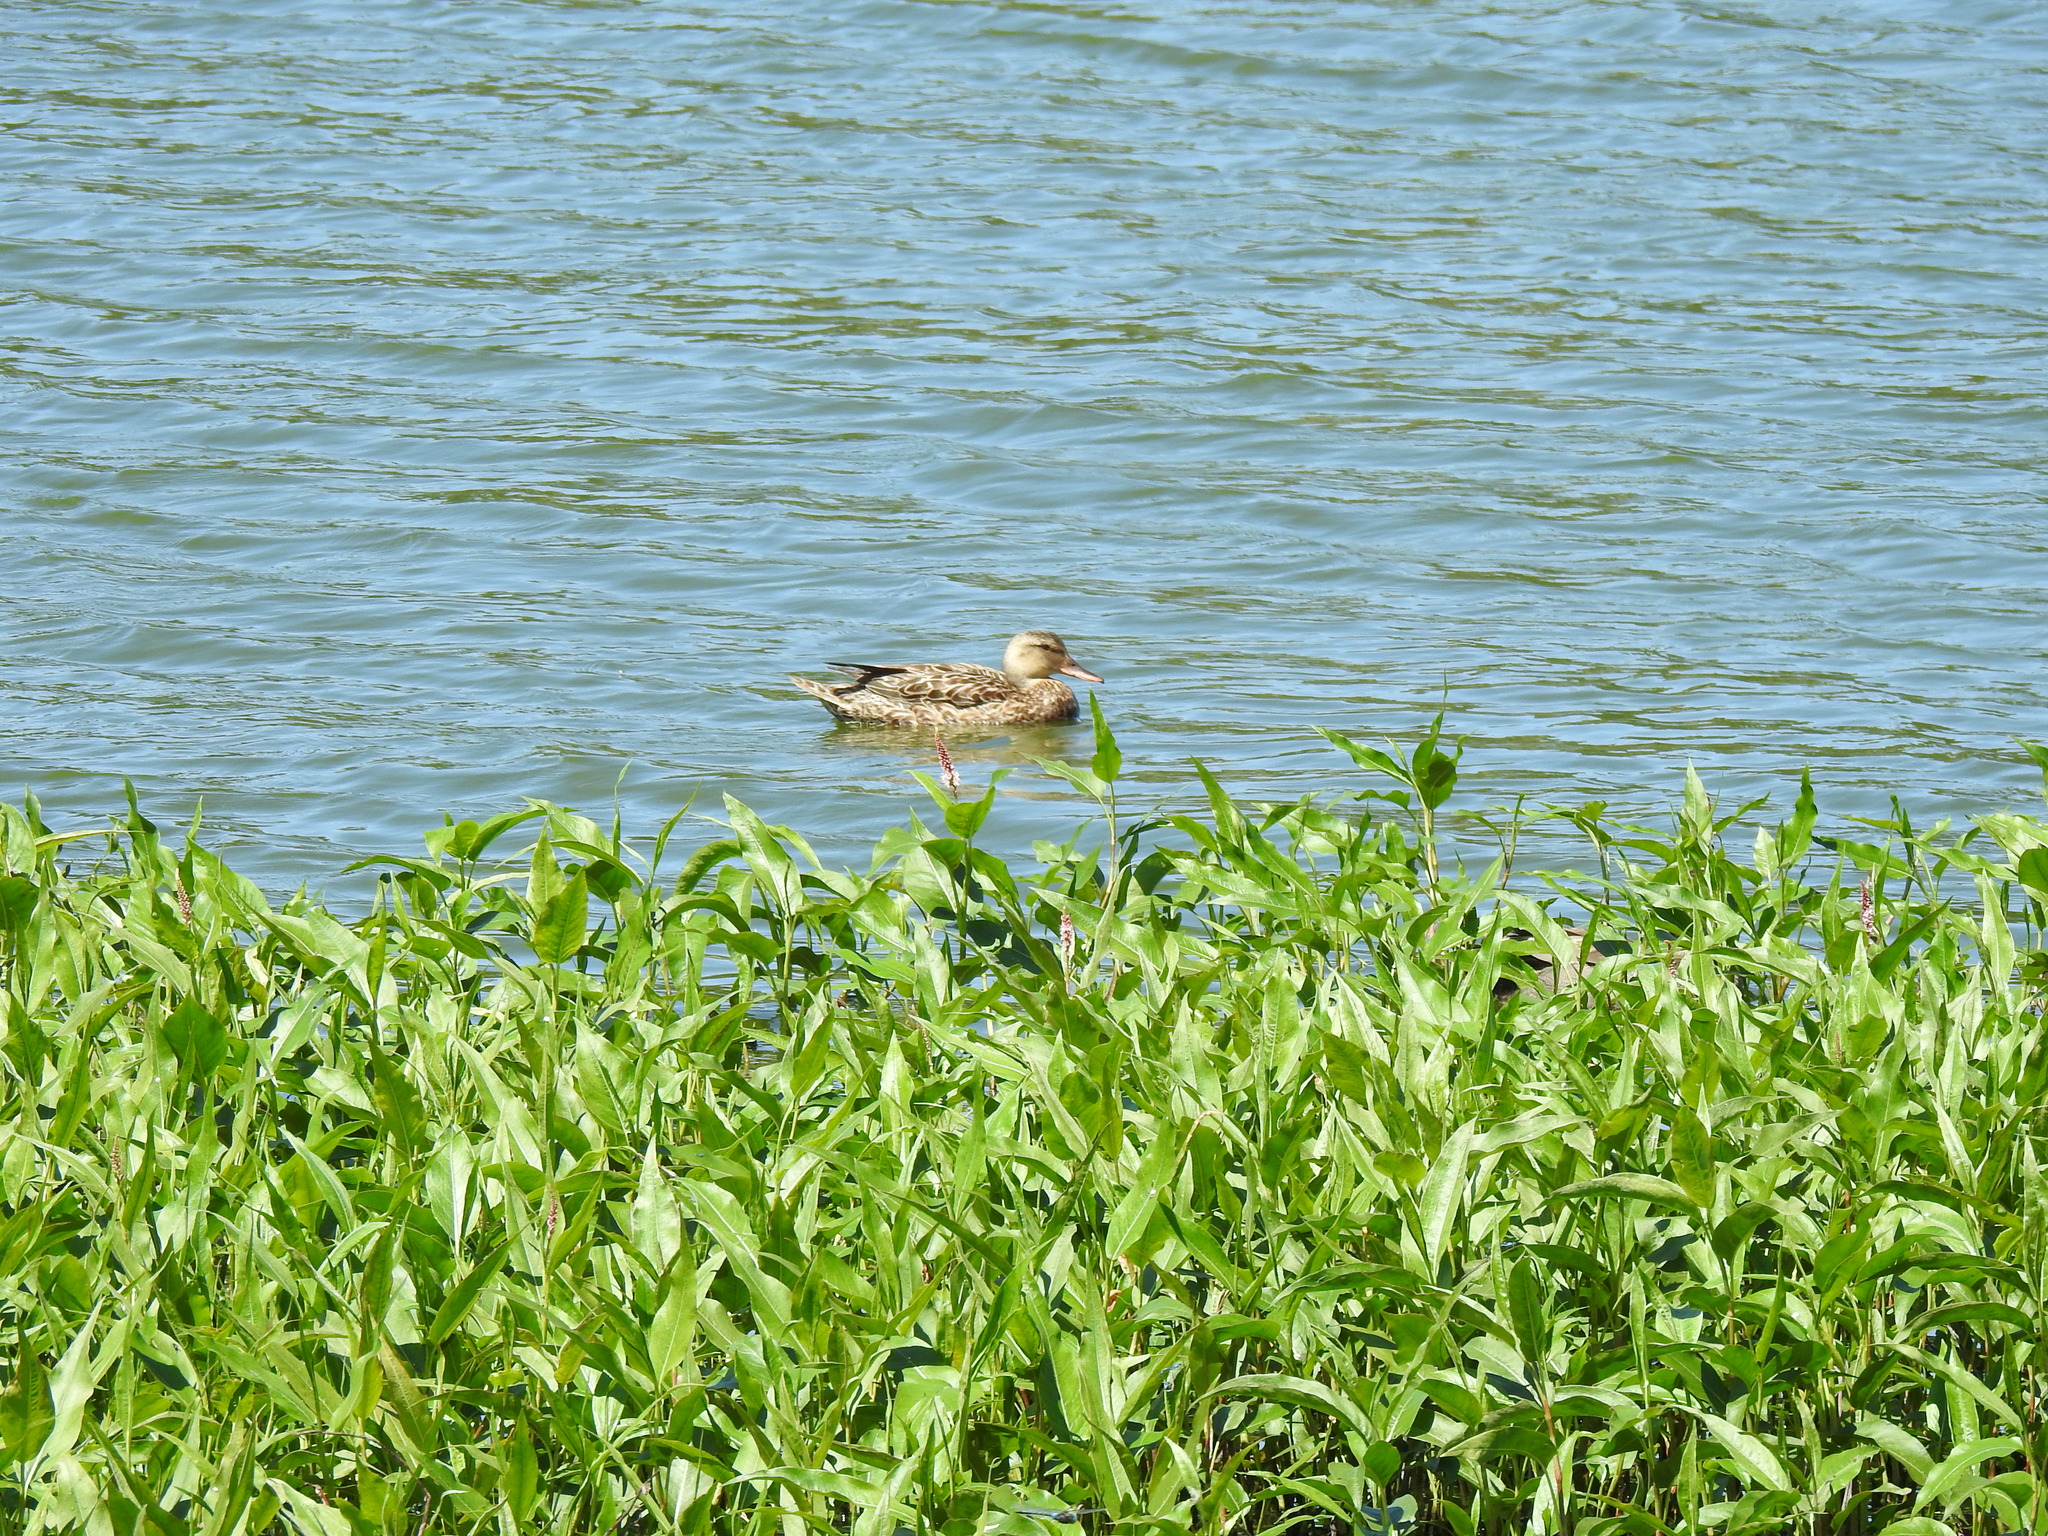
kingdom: Animalia
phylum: Chordata
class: Aves
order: Anseriformes
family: Anatidae
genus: Anas
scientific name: Anas platyrhynchos
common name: Mallard
